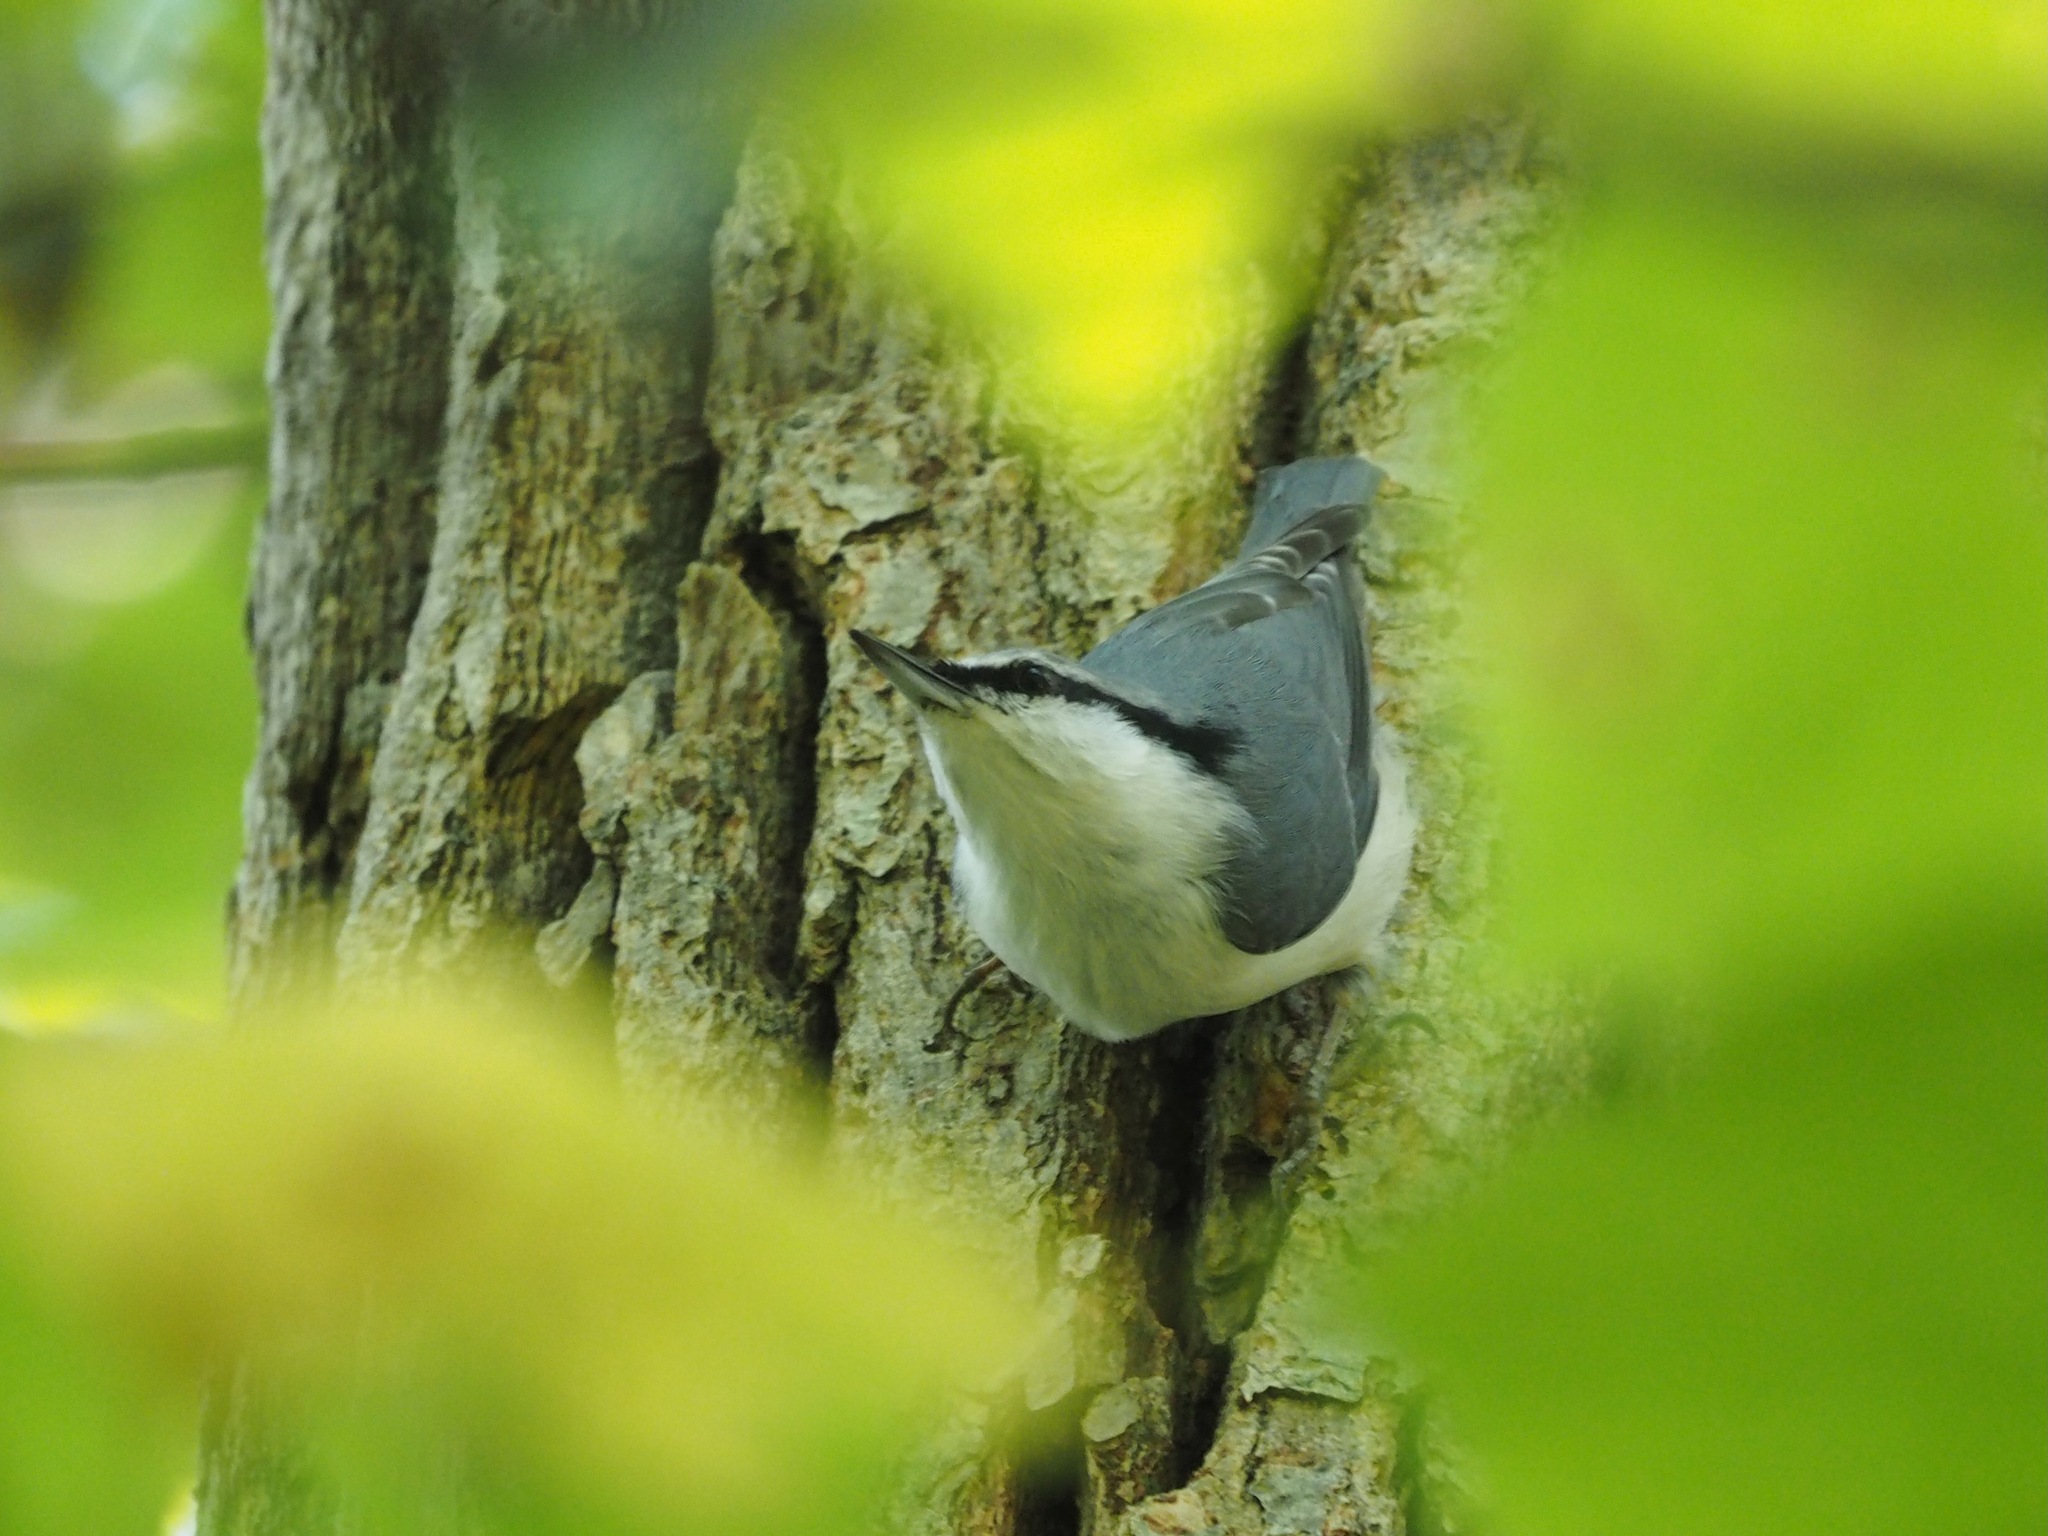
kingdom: Animalia
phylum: Chordata
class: Aves
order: Passeriformes
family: Sittidae
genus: Sitta
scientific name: Sitta europaea
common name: Eurasian nuthatch
